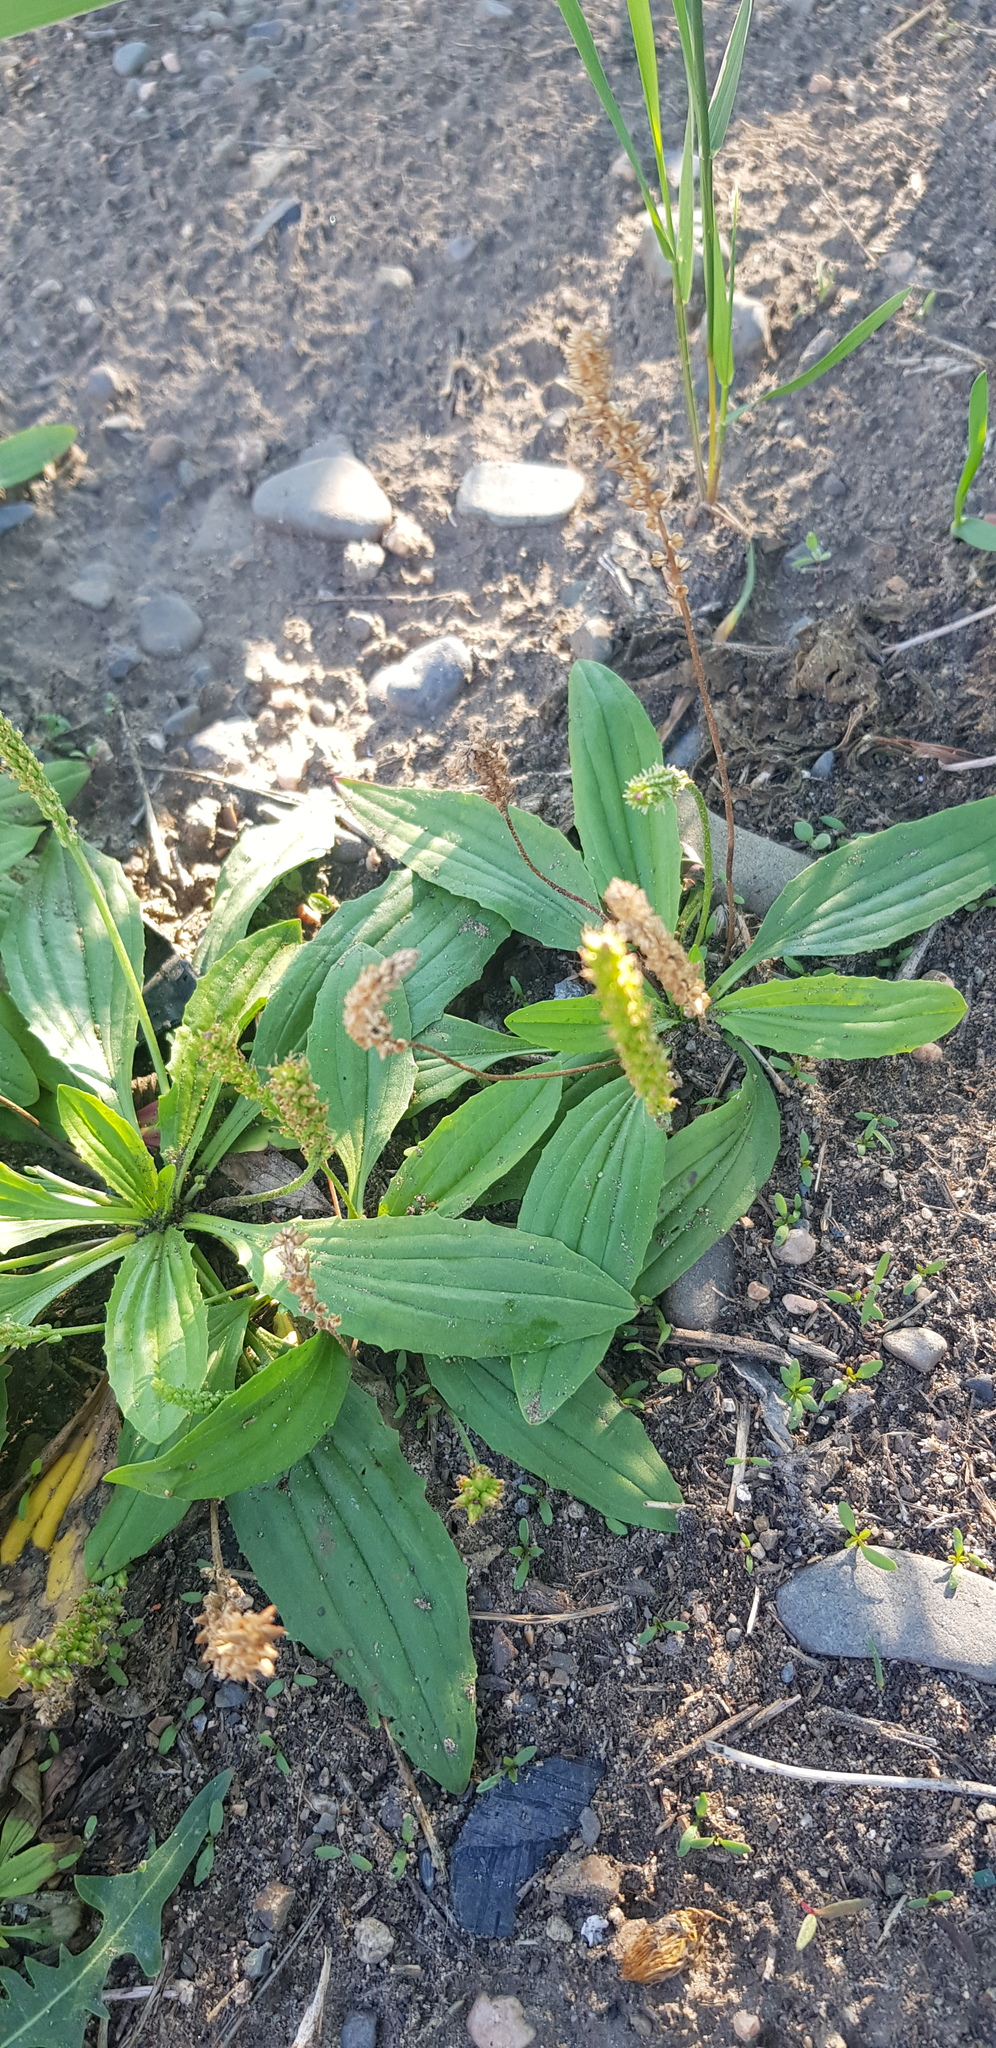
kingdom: Plantae
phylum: Tracheophyta
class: Magnoliopsida
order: Lamiales
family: Plantaginaceae
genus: Plantago
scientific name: Plantago depressa
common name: Depressed plantain
